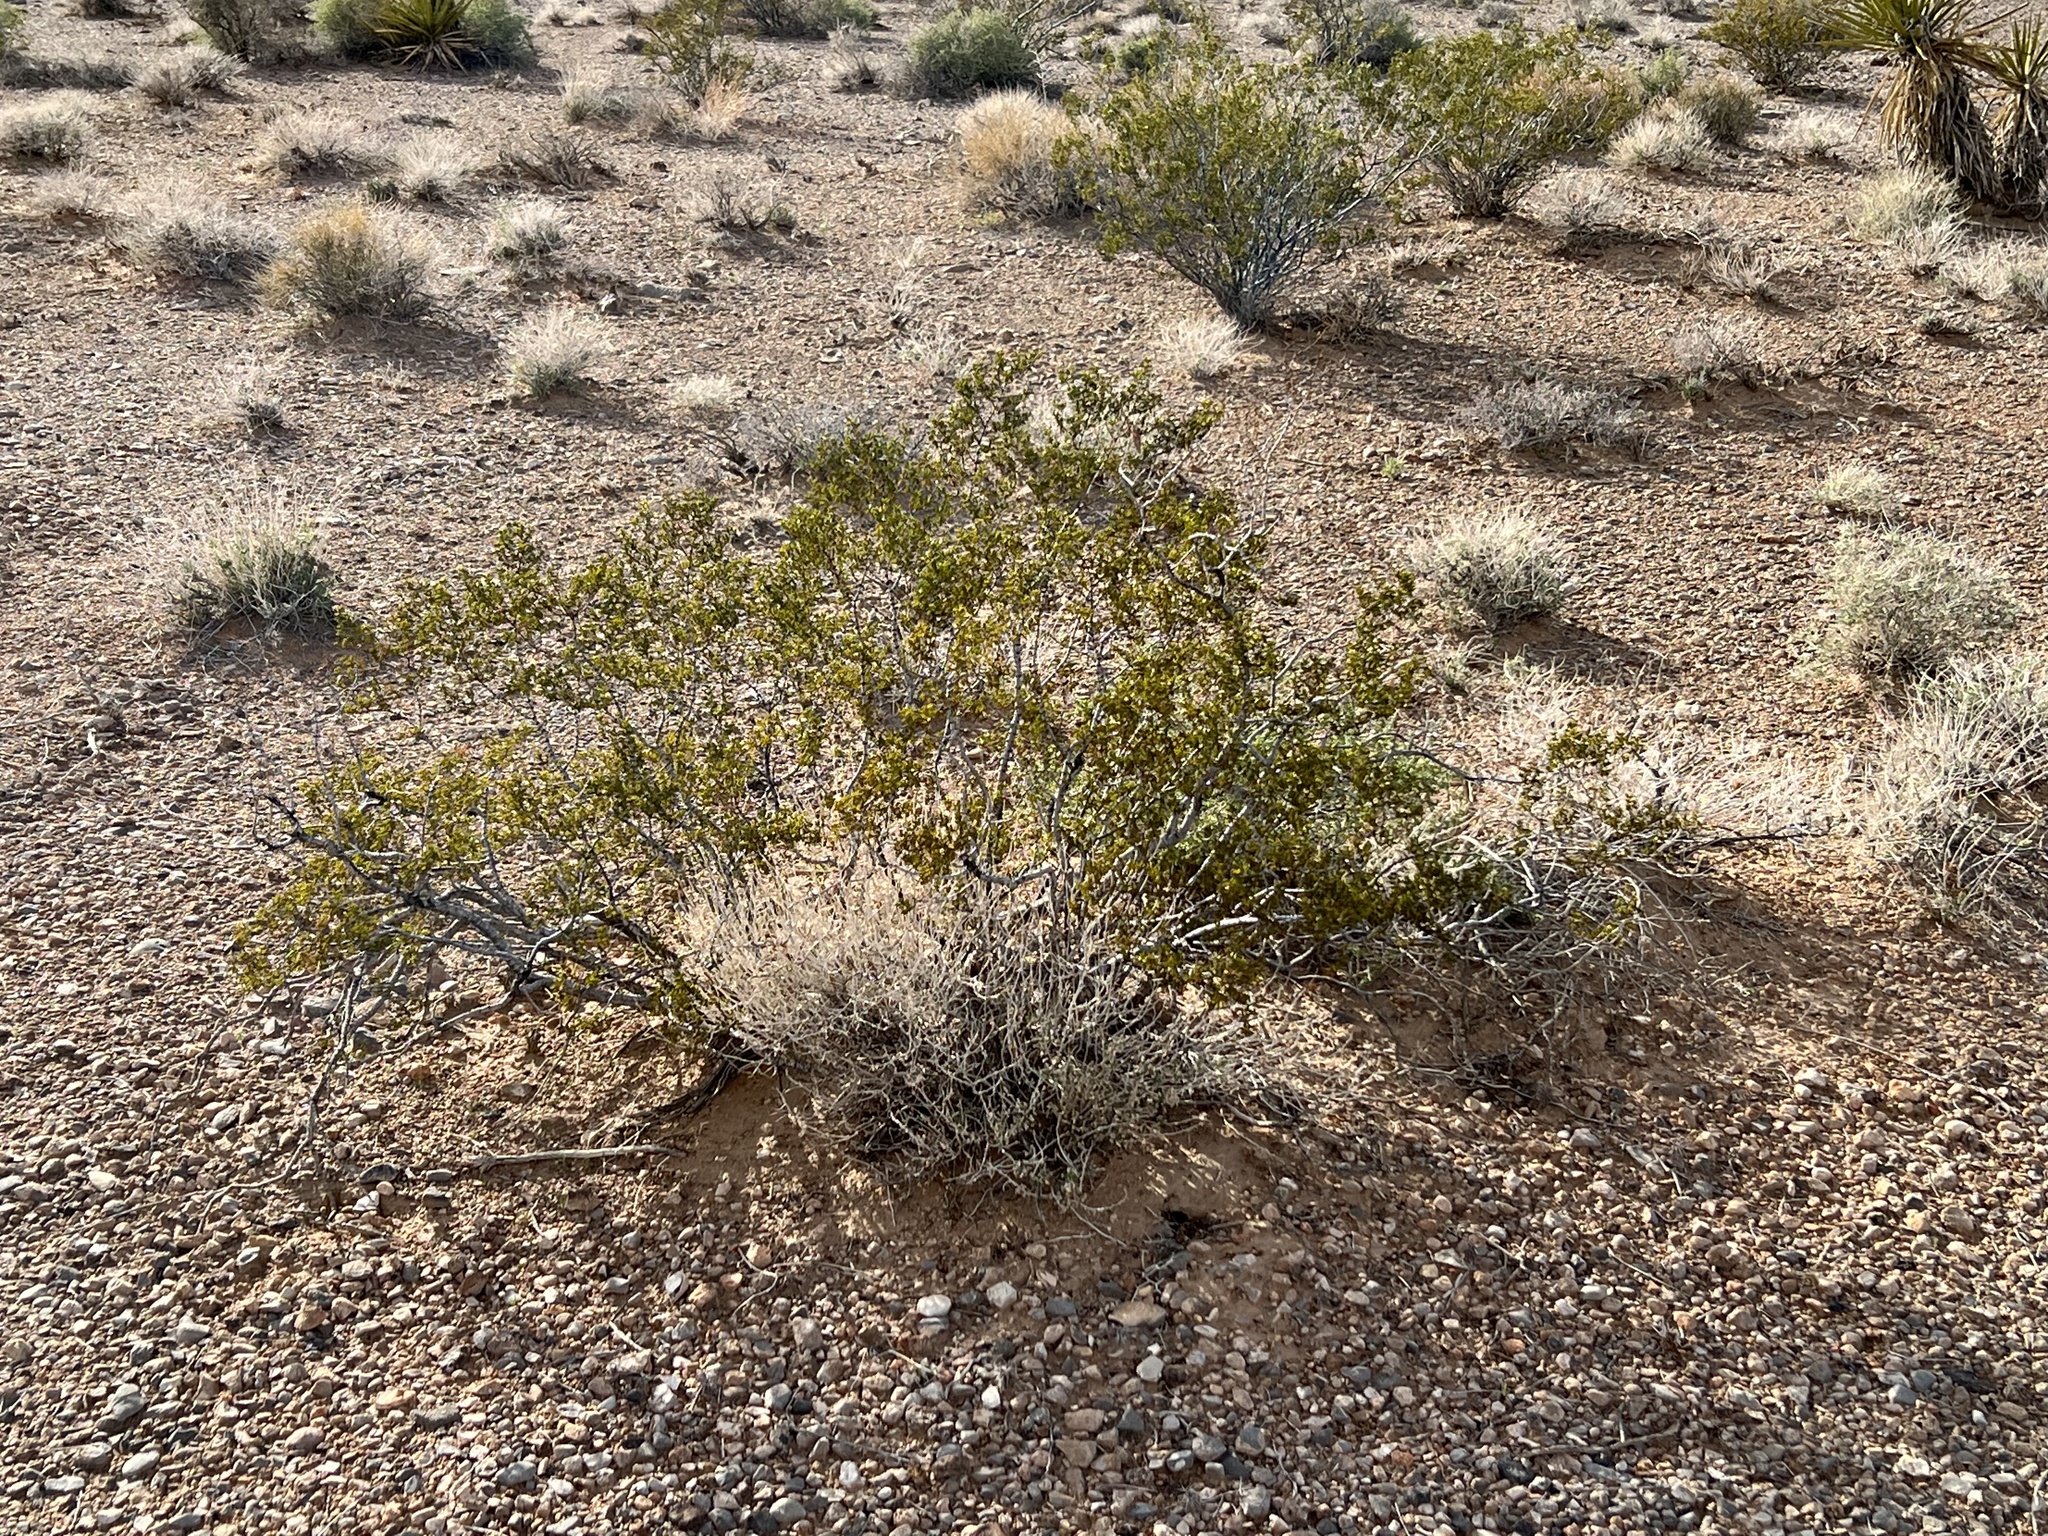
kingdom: Plantae
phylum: Tracheophyta
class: Magnoliopsida
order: Zygophyllales
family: Zygophyllaceae
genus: Larrea
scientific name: Larrea tridentata
